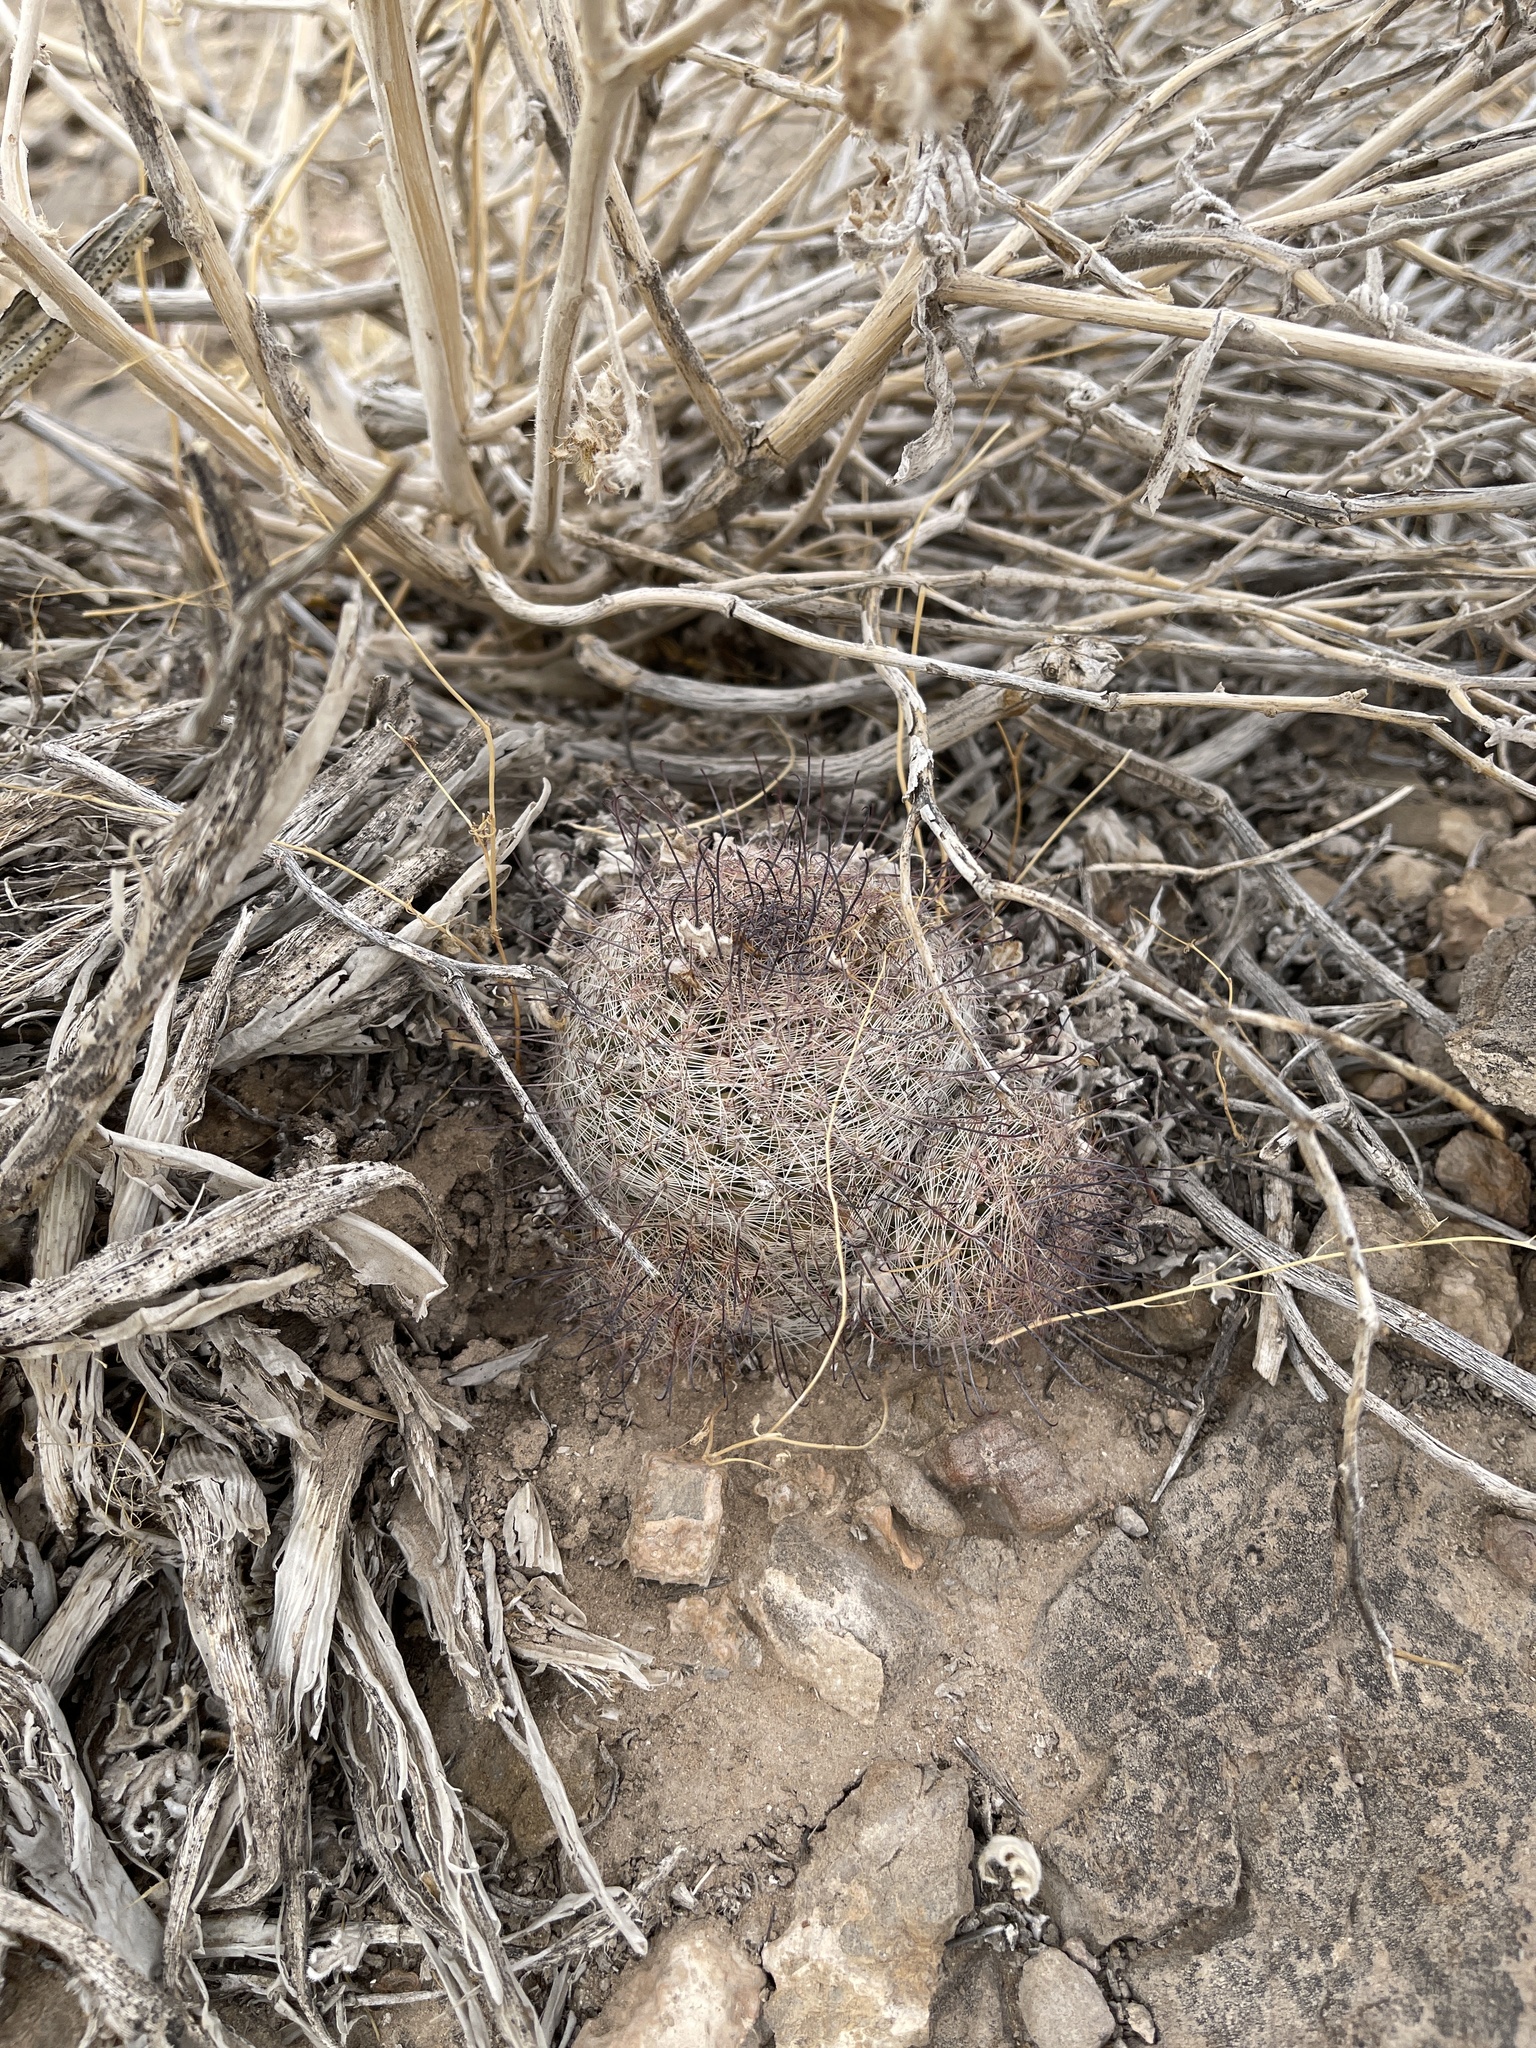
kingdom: Plantae
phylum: Tracheophyta
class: Magnoliopsida
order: Caryophyllales
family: Cactaceae
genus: Cochemiea
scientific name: Cochemiea grahamii
